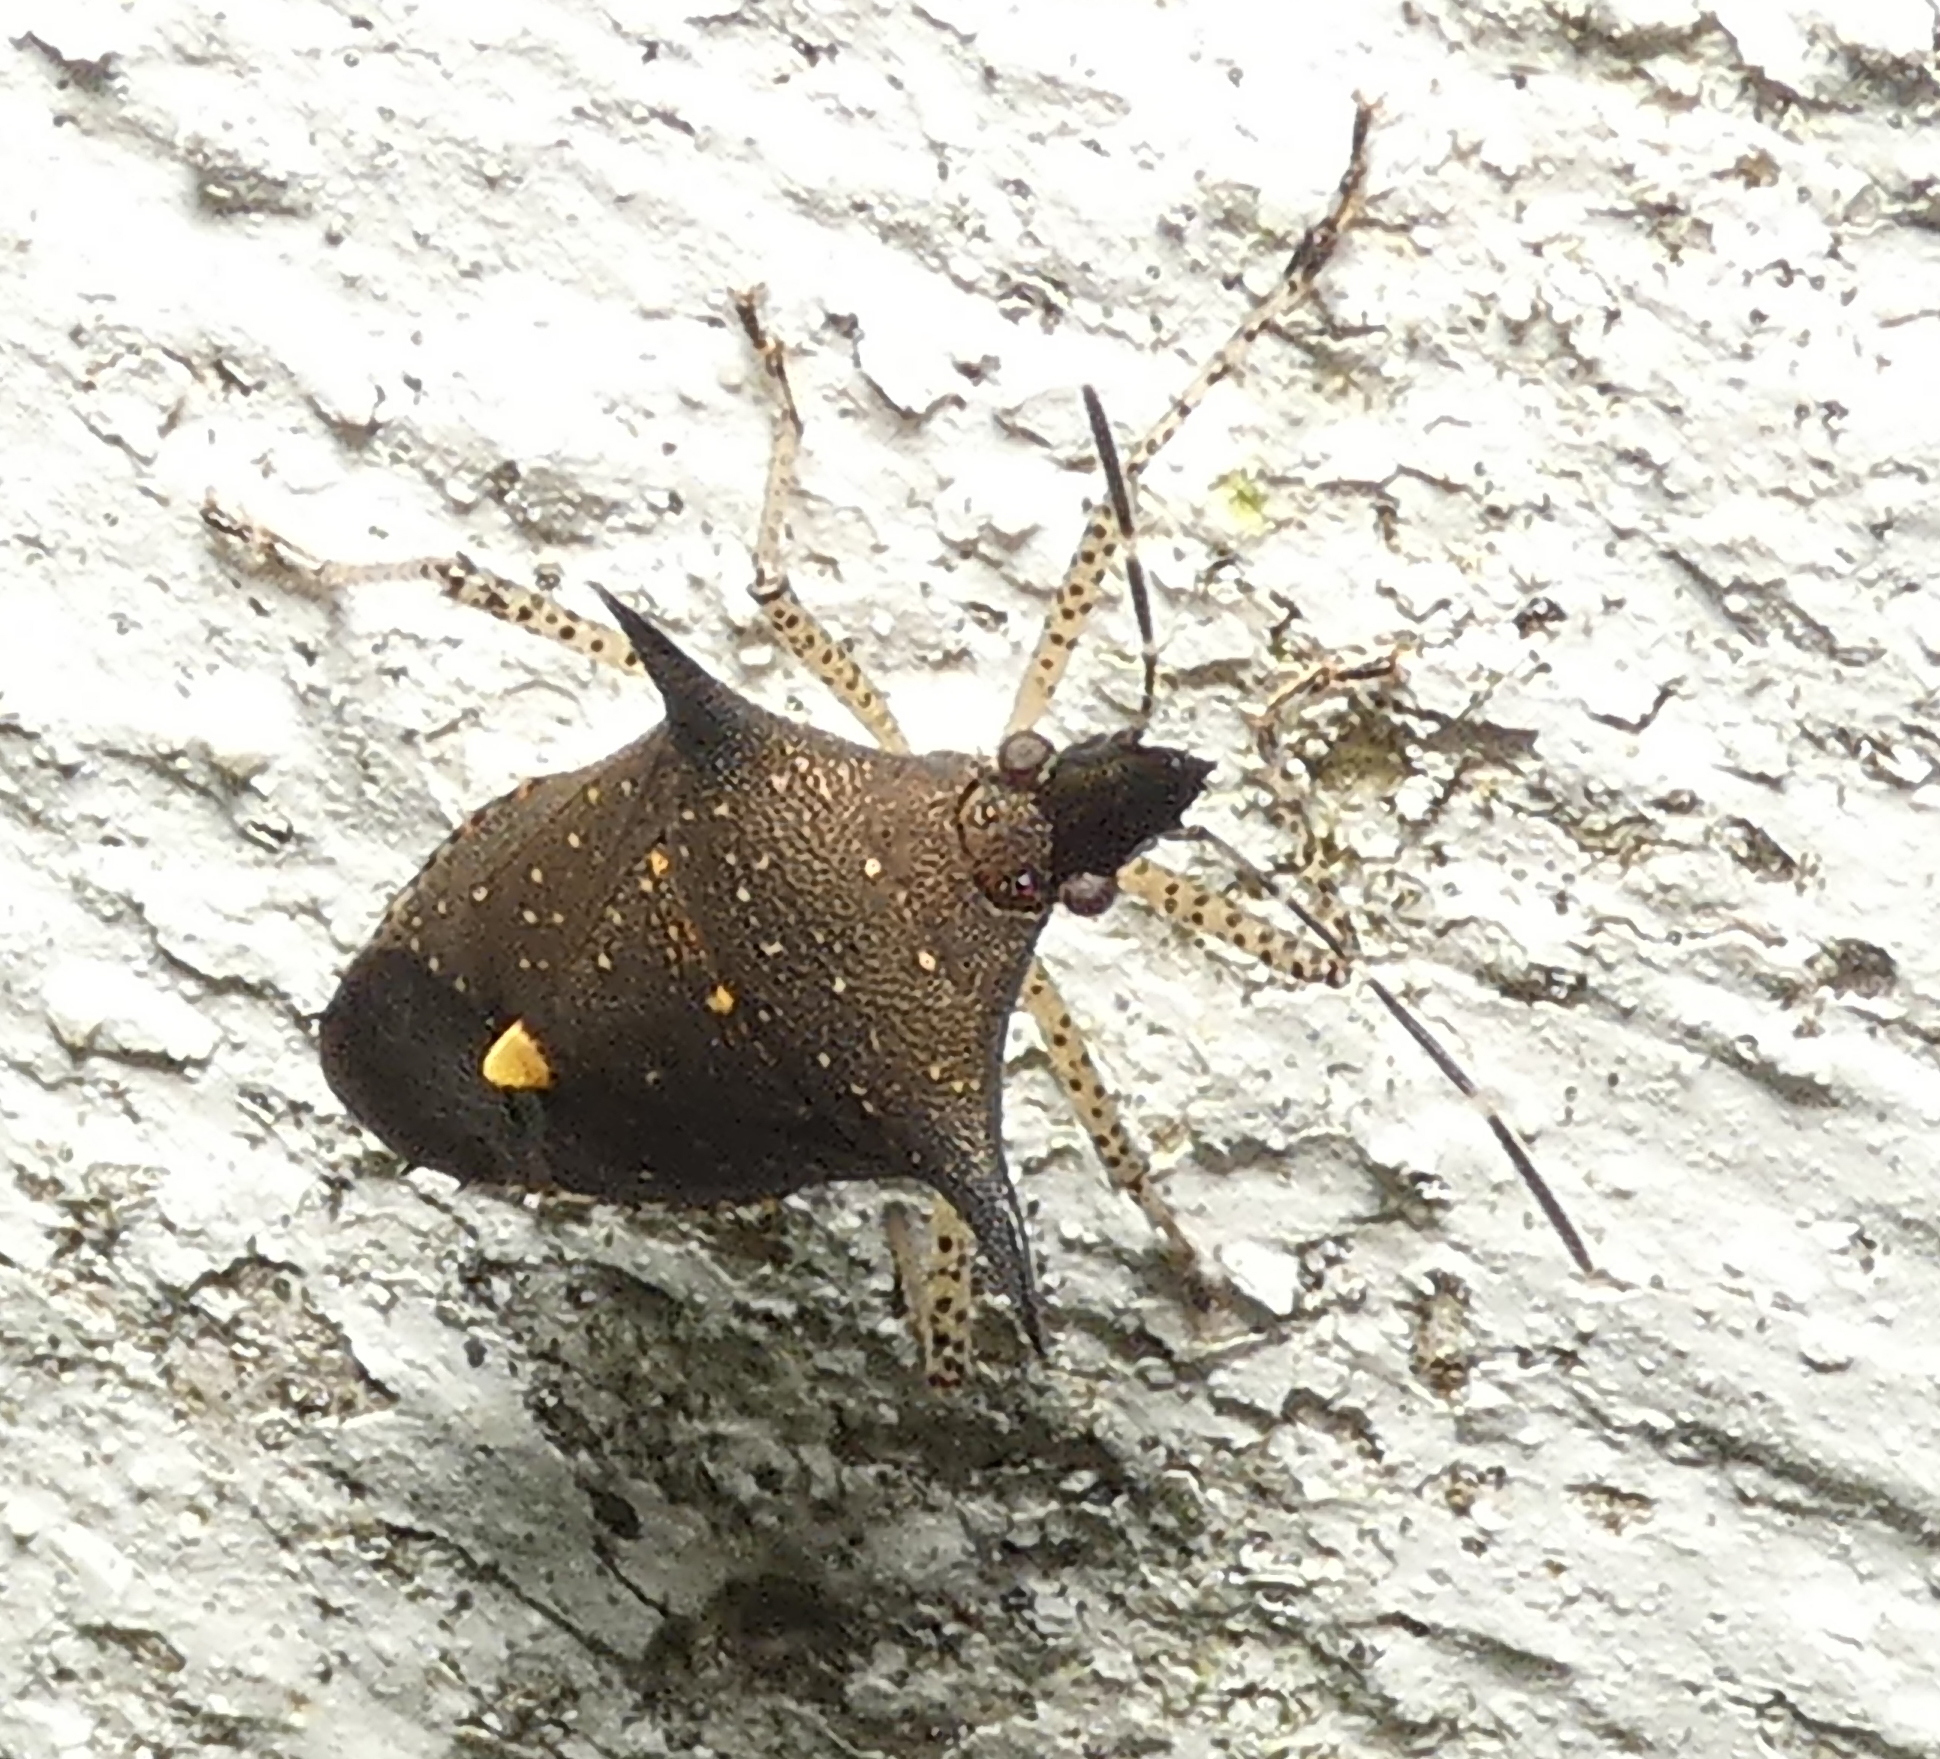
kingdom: Animalia
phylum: Arthropoda
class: Insecta
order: Hemiptera
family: Pentatomidae
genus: Proxys
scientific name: Proxys albopunctulatus
